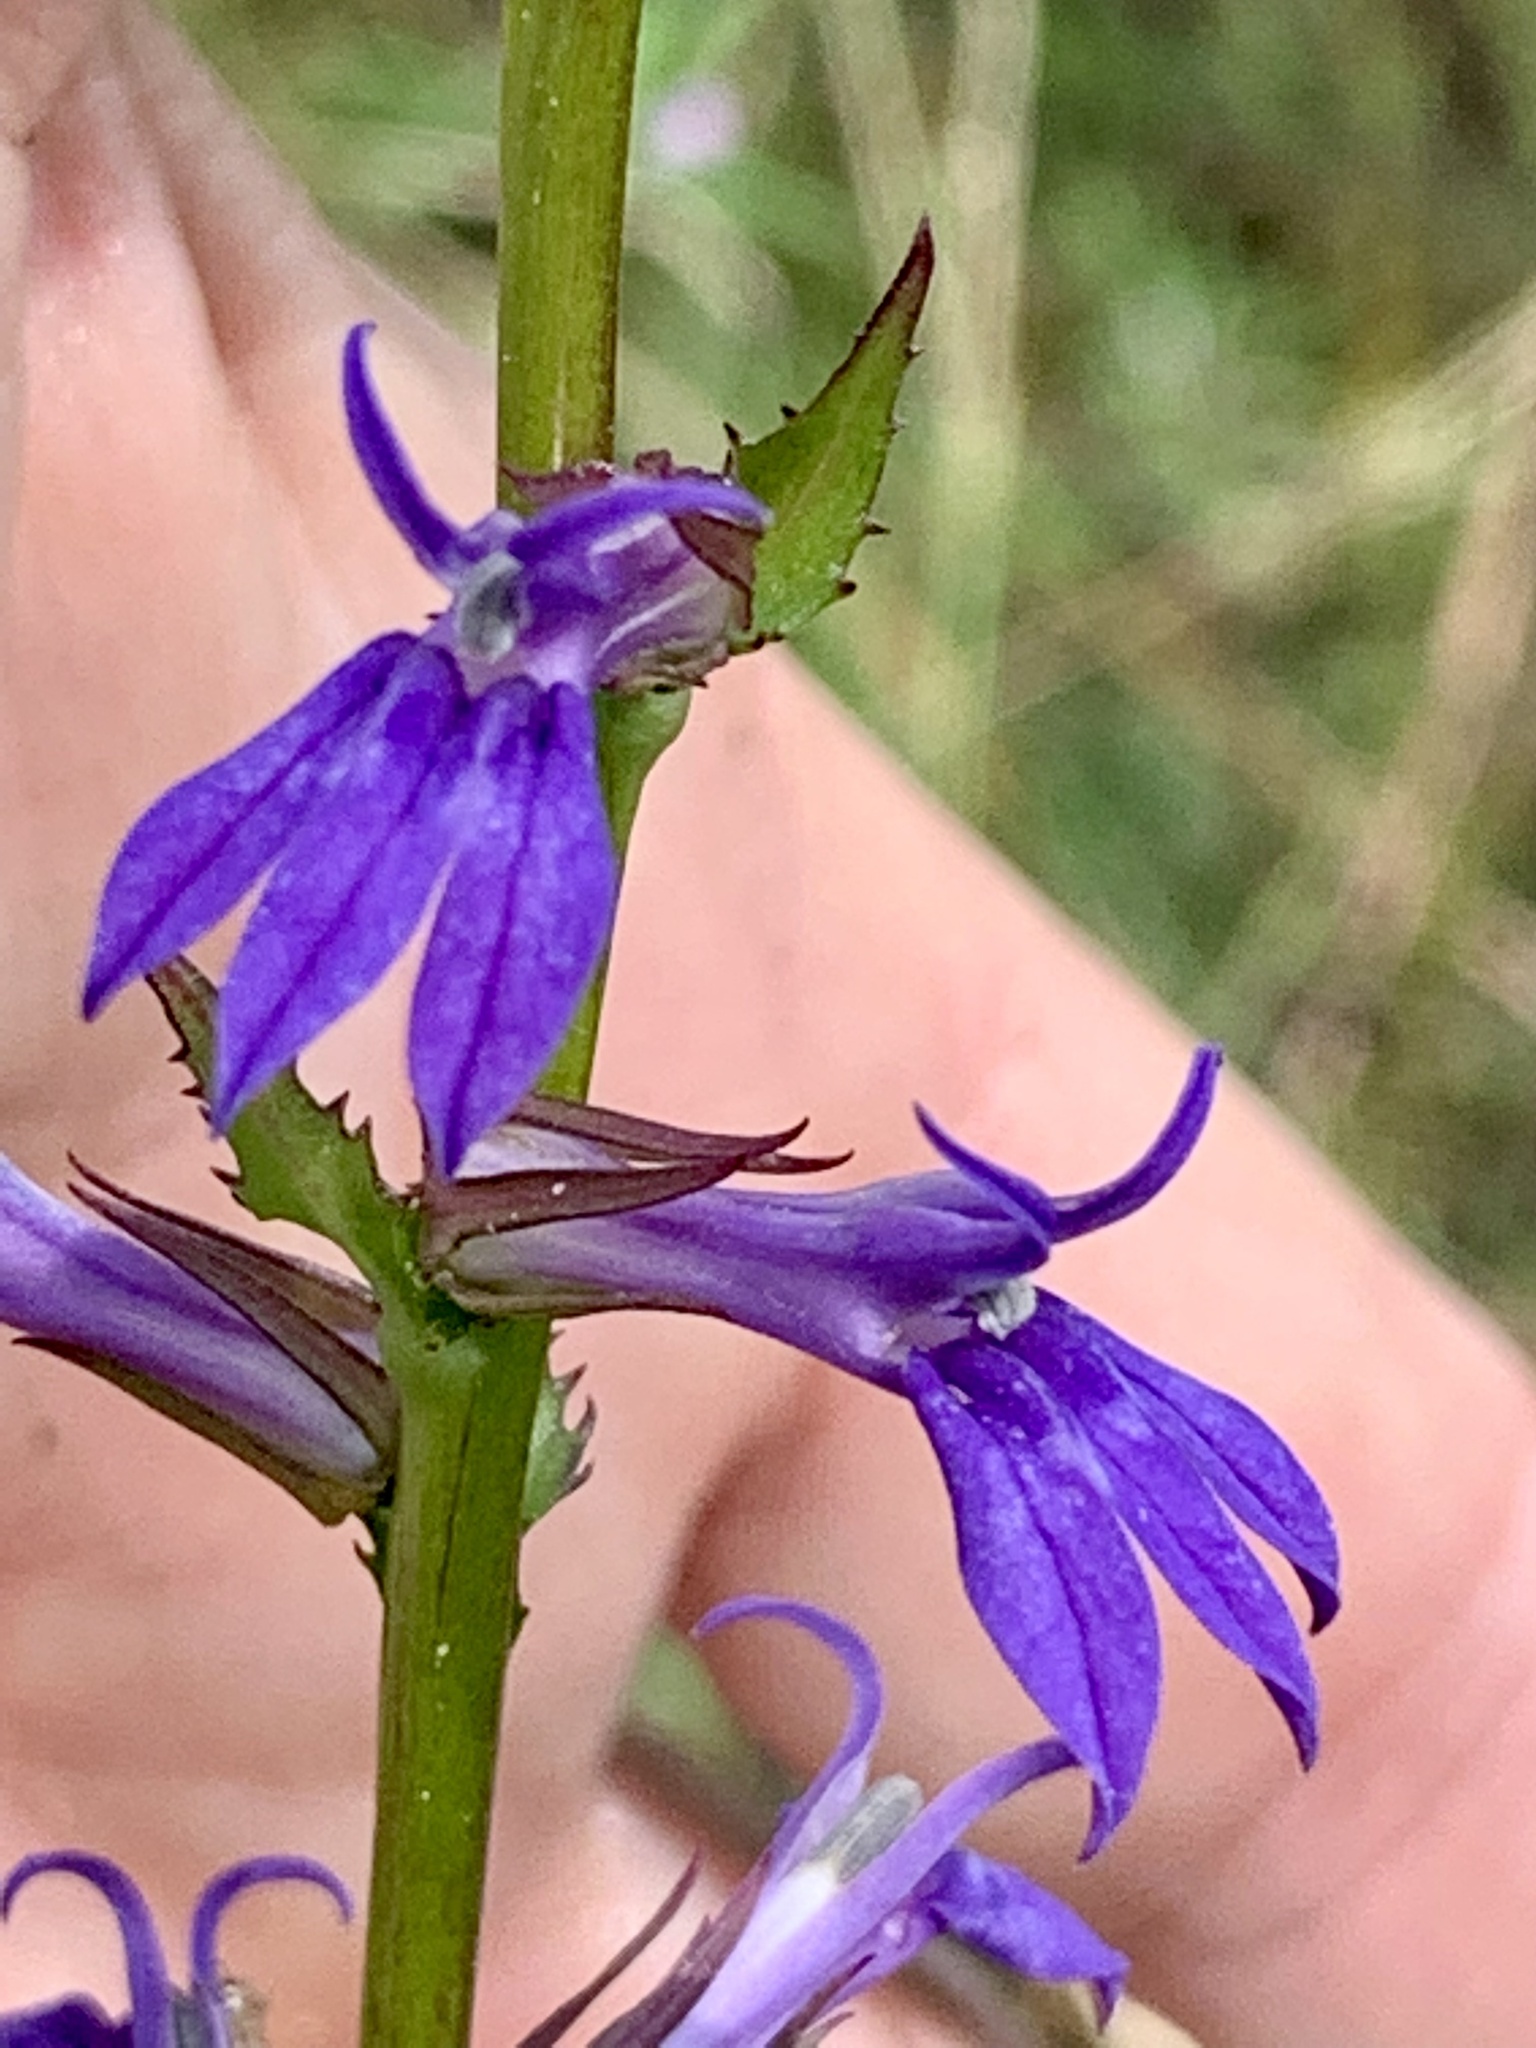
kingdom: Plantae
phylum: Tracheophyta
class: Magnoliopsida
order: Asterales
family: Campanulaceae
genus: Lobelia
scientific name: Lobelia puberula
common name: Purple dewdrop
